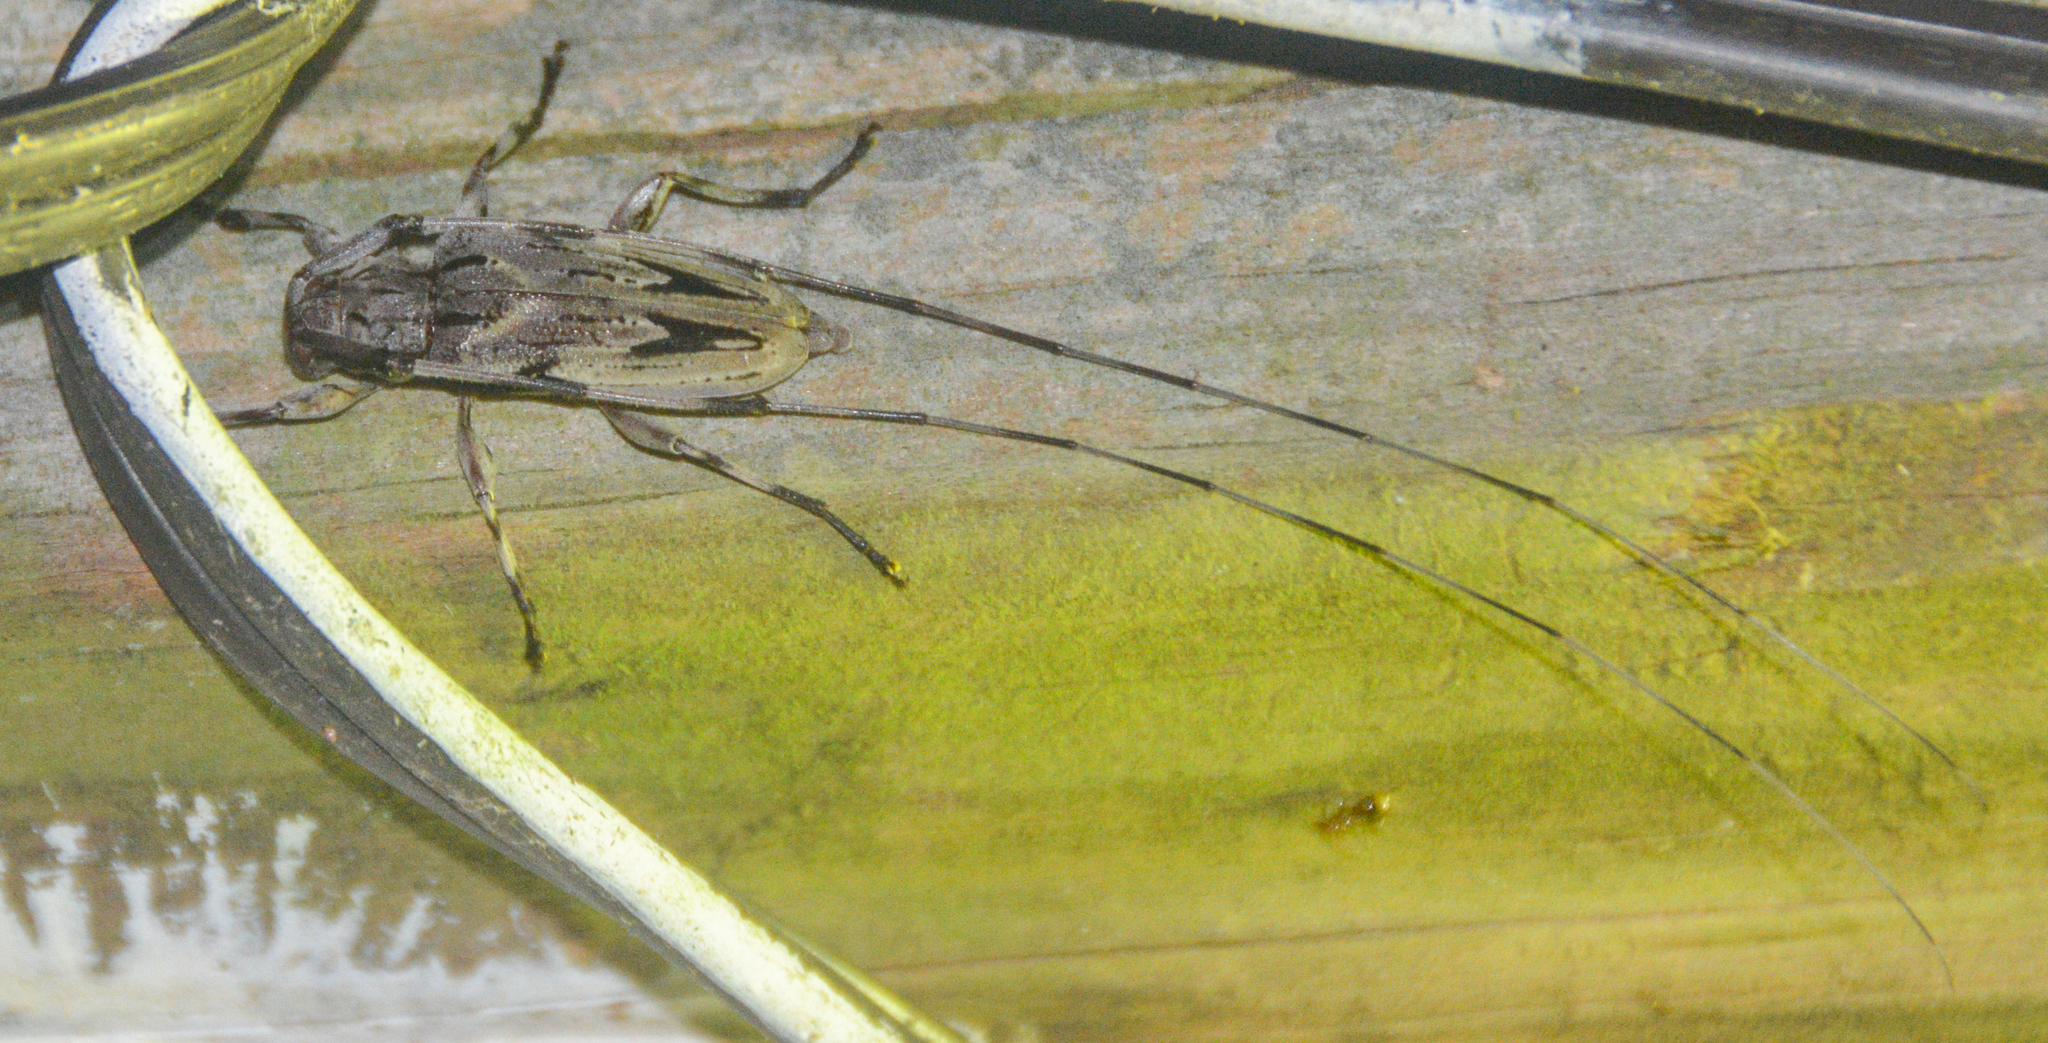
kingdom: Animalia
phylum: Arthropoda
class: Insecta
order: Coleoptera
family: Cerambycidae
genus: Acanthocinus
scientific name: Acanthocinus nodosus
